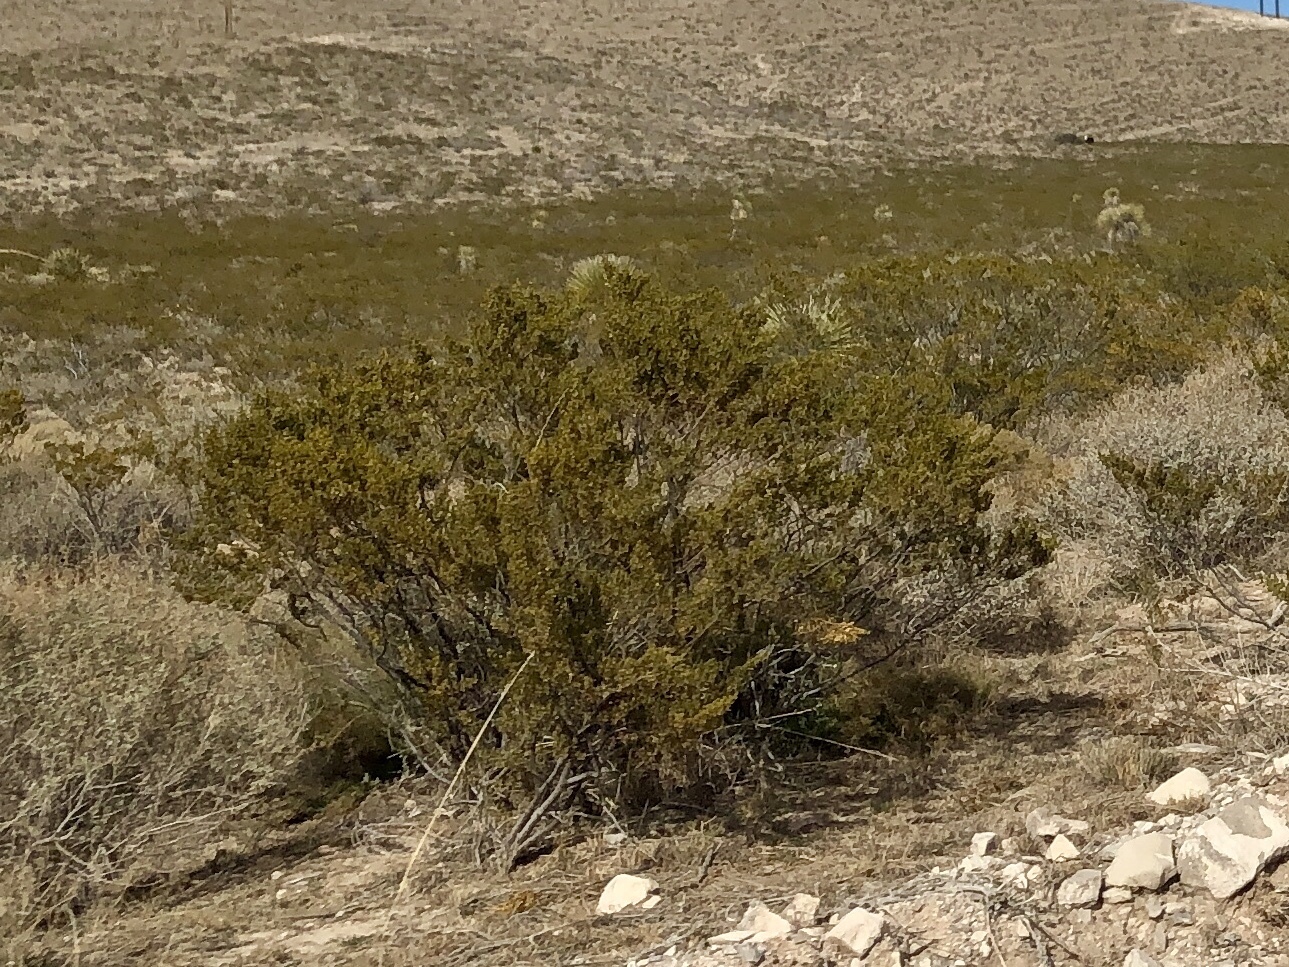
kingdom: Plantae
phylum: Tracheophyta
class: Magnoliopsida
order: Zygophyllales
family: Zygophyllaceae
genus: Larrea
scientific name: Larrea tridentata
